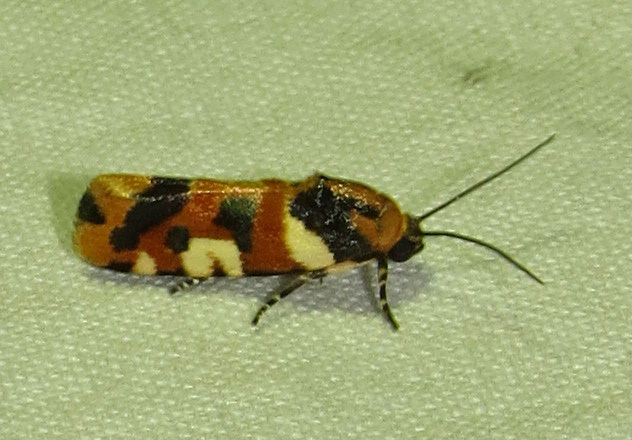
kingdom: Animalia
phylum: Arthropoda
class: Insecta
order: Lepidoptera
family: Noctuidae
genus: Acontia
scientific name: Acontia dama
